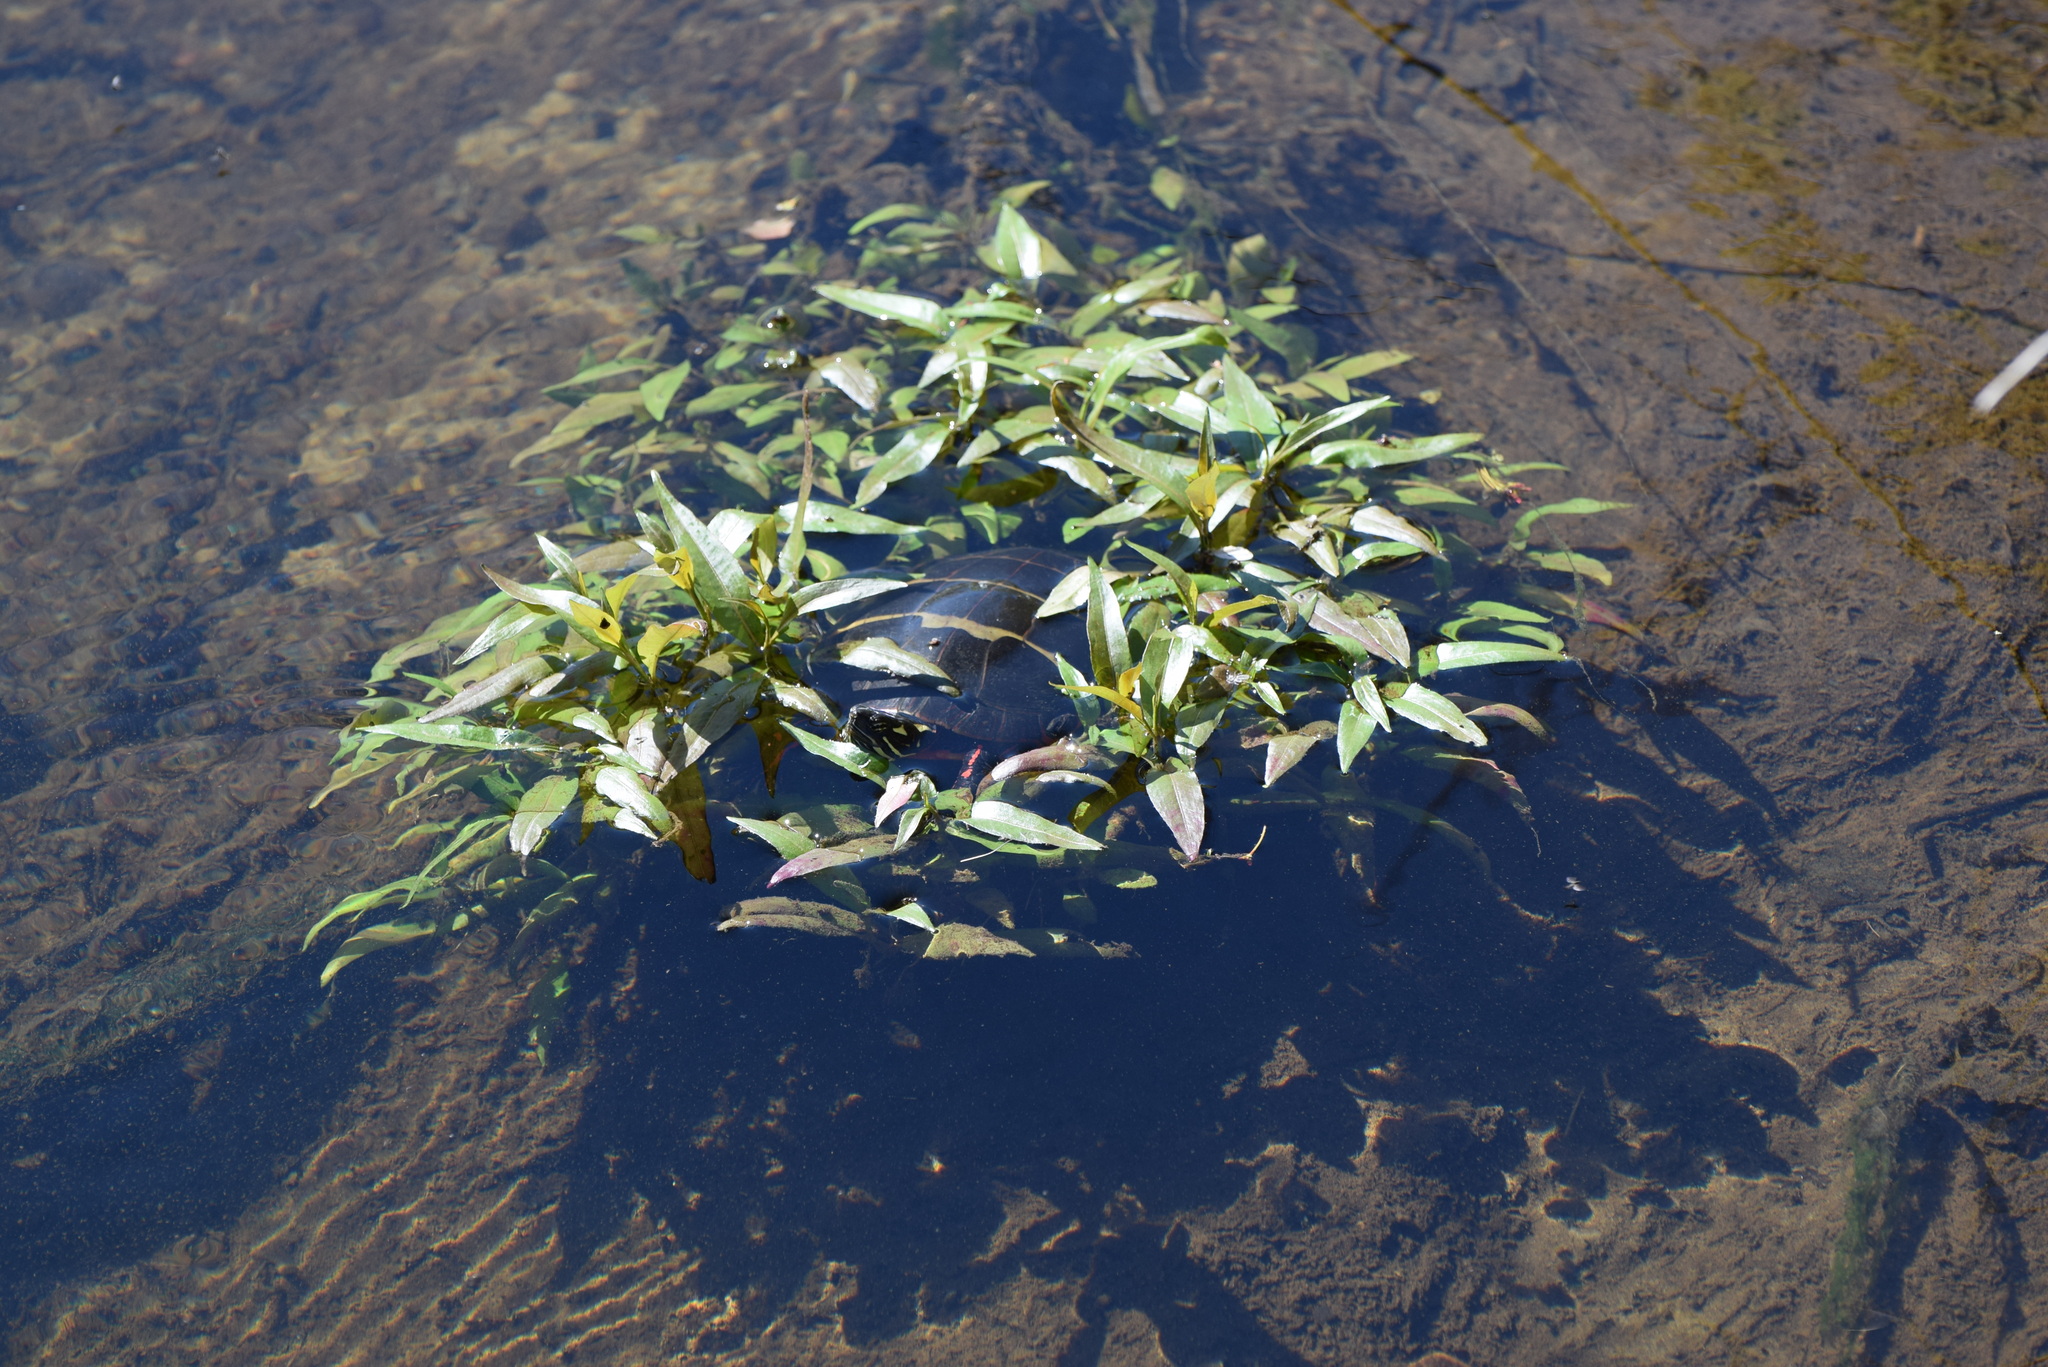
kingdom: Animalia
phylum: Chordata
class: Testudines
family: Emydidae
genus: Chrysemys
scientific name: Chrysemys picta
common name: Painted turtle
